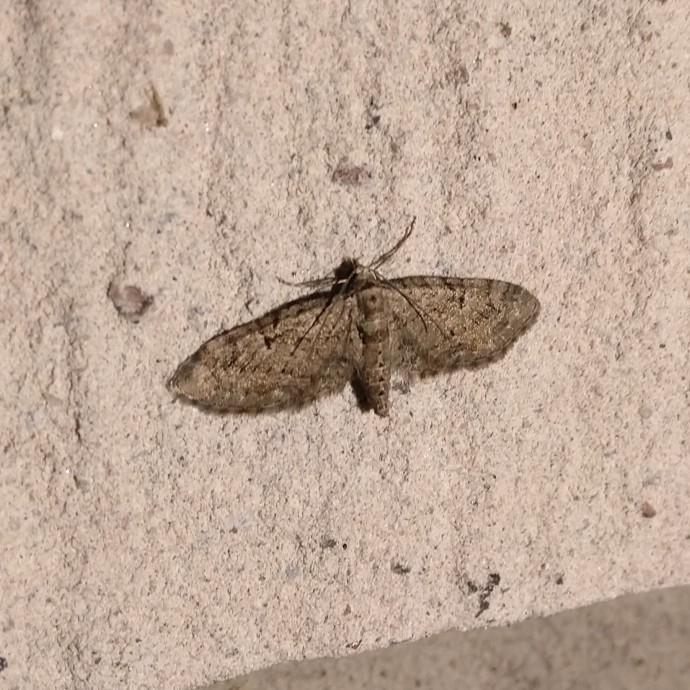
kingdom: Animalia
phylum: Arthropoda
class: Insecta
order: Lepidoptera
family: Geometridae
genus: Eupithecia
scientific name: Eupithecia pusillata
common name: Juniper pug
